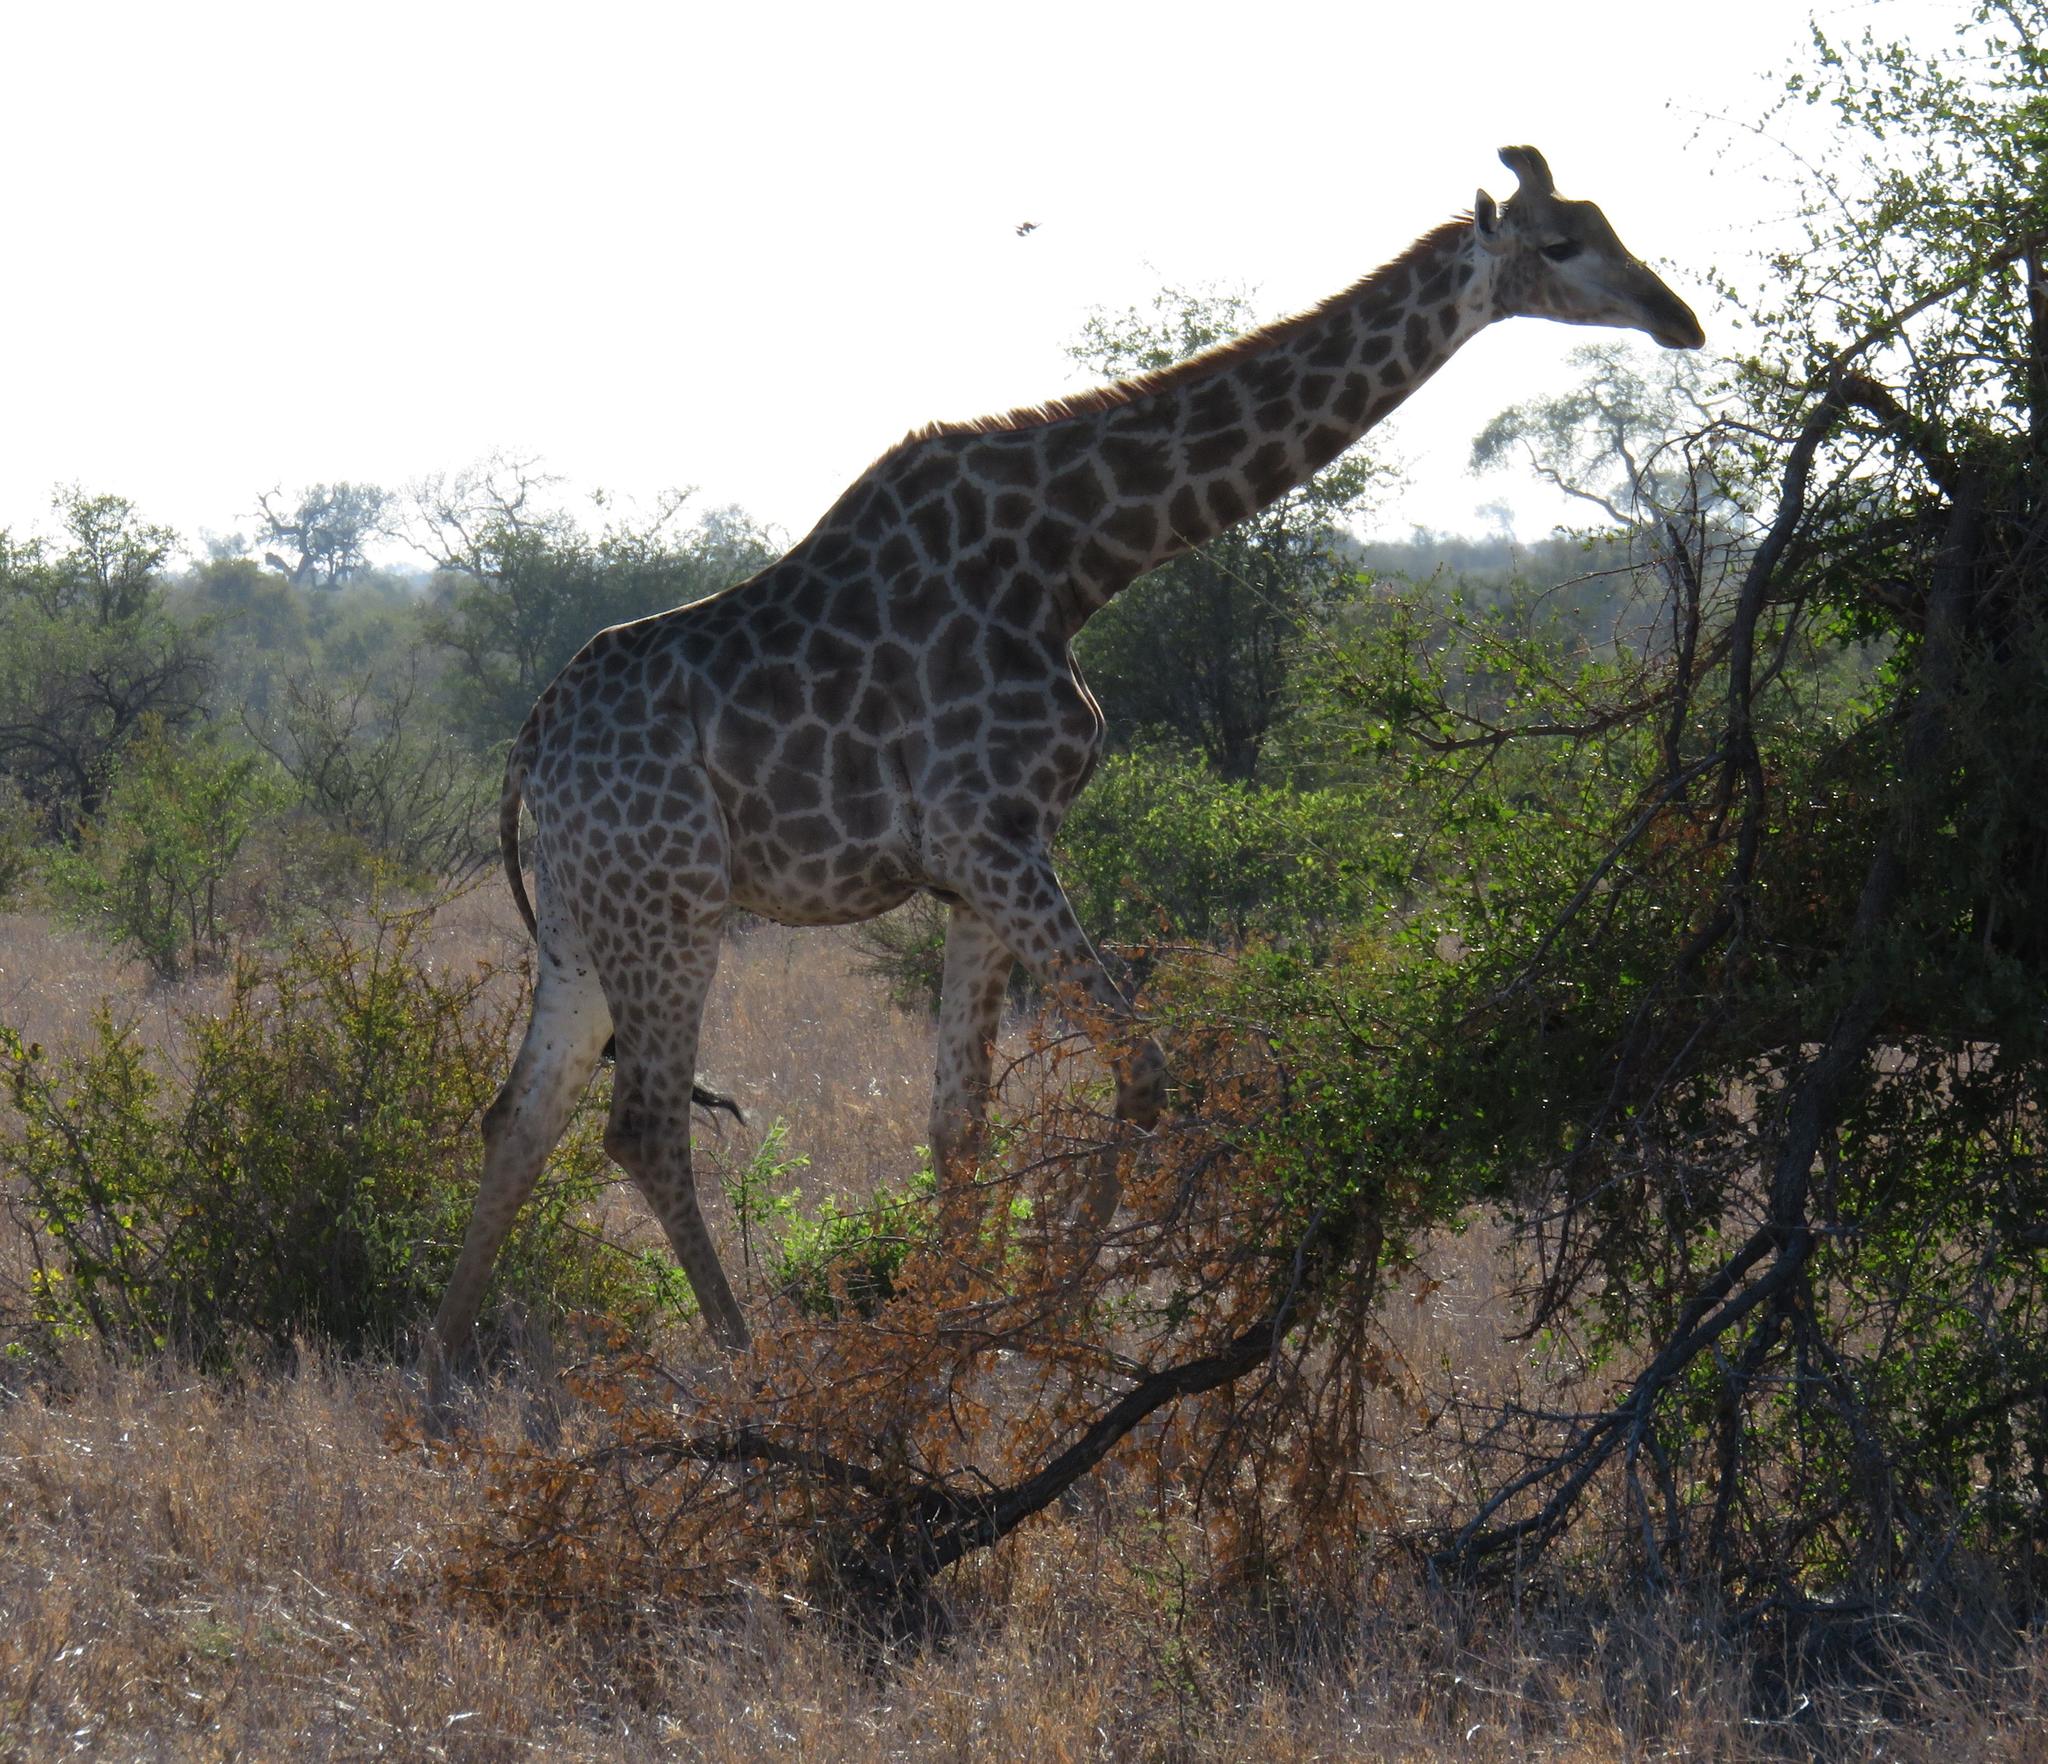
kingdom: Animalia
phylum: Chordata
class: Mammalia
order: Artiodactyla
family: Giraffidae
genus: Giraffa
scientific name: Giraffa giraffa
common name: Southern giraffe
